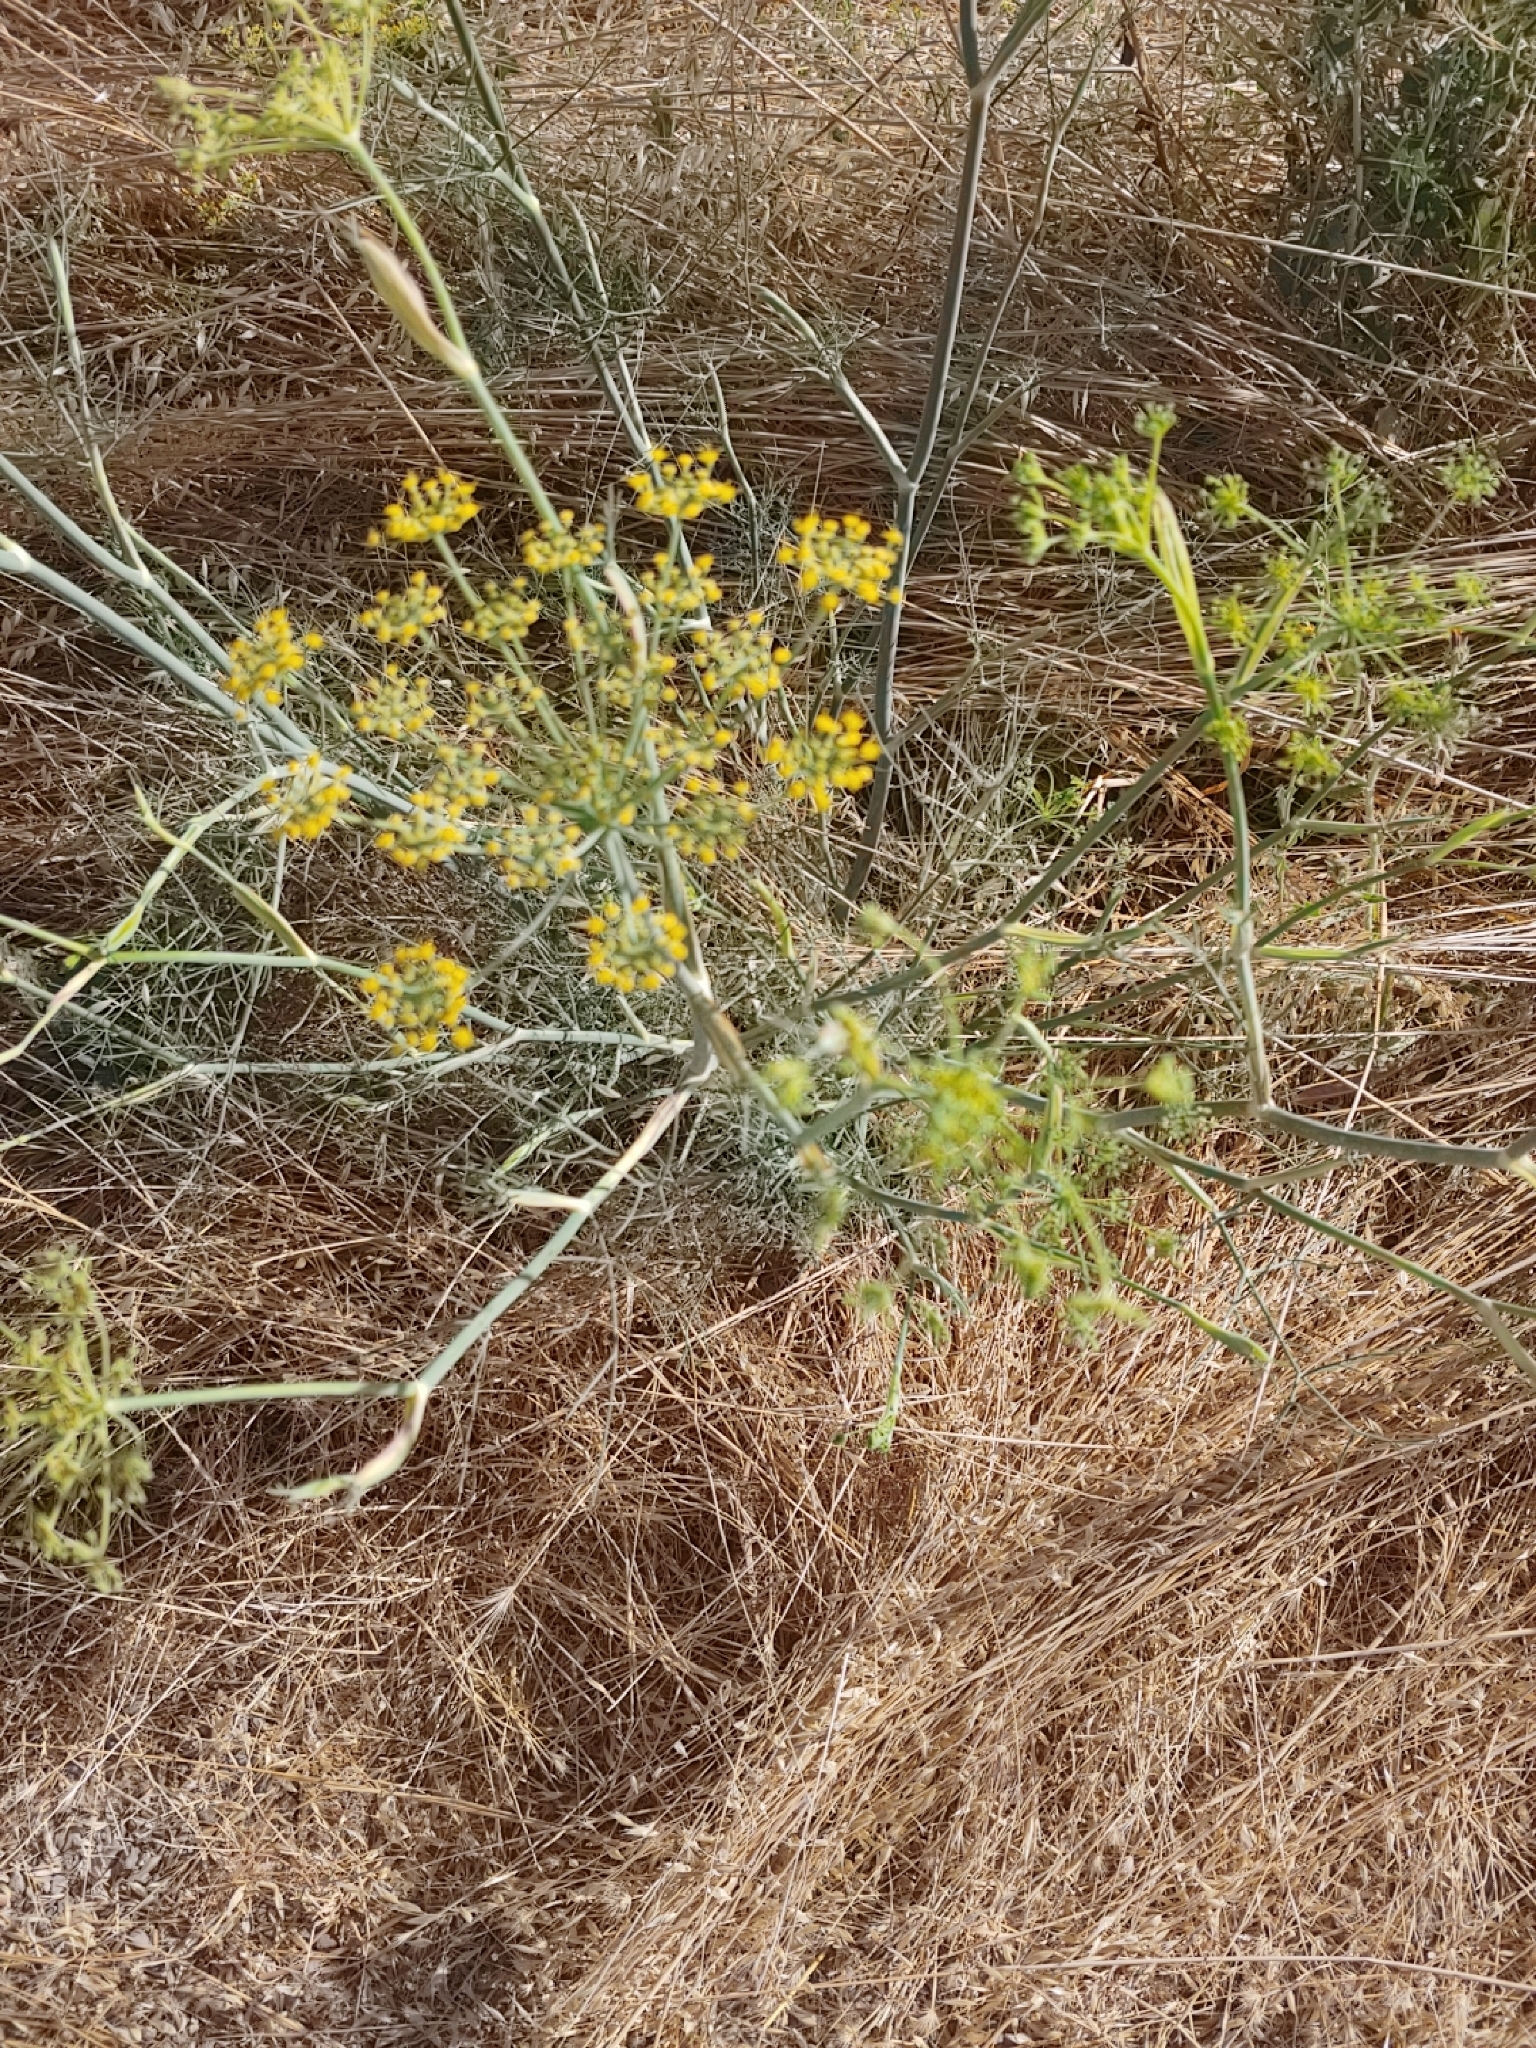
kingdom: Plantae
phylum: Tracheophyta
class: Magnoliopsida
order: Apiales
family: Apiaceae
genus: Foeniculum
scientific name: Foeniculum vulgare
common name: Fennel
